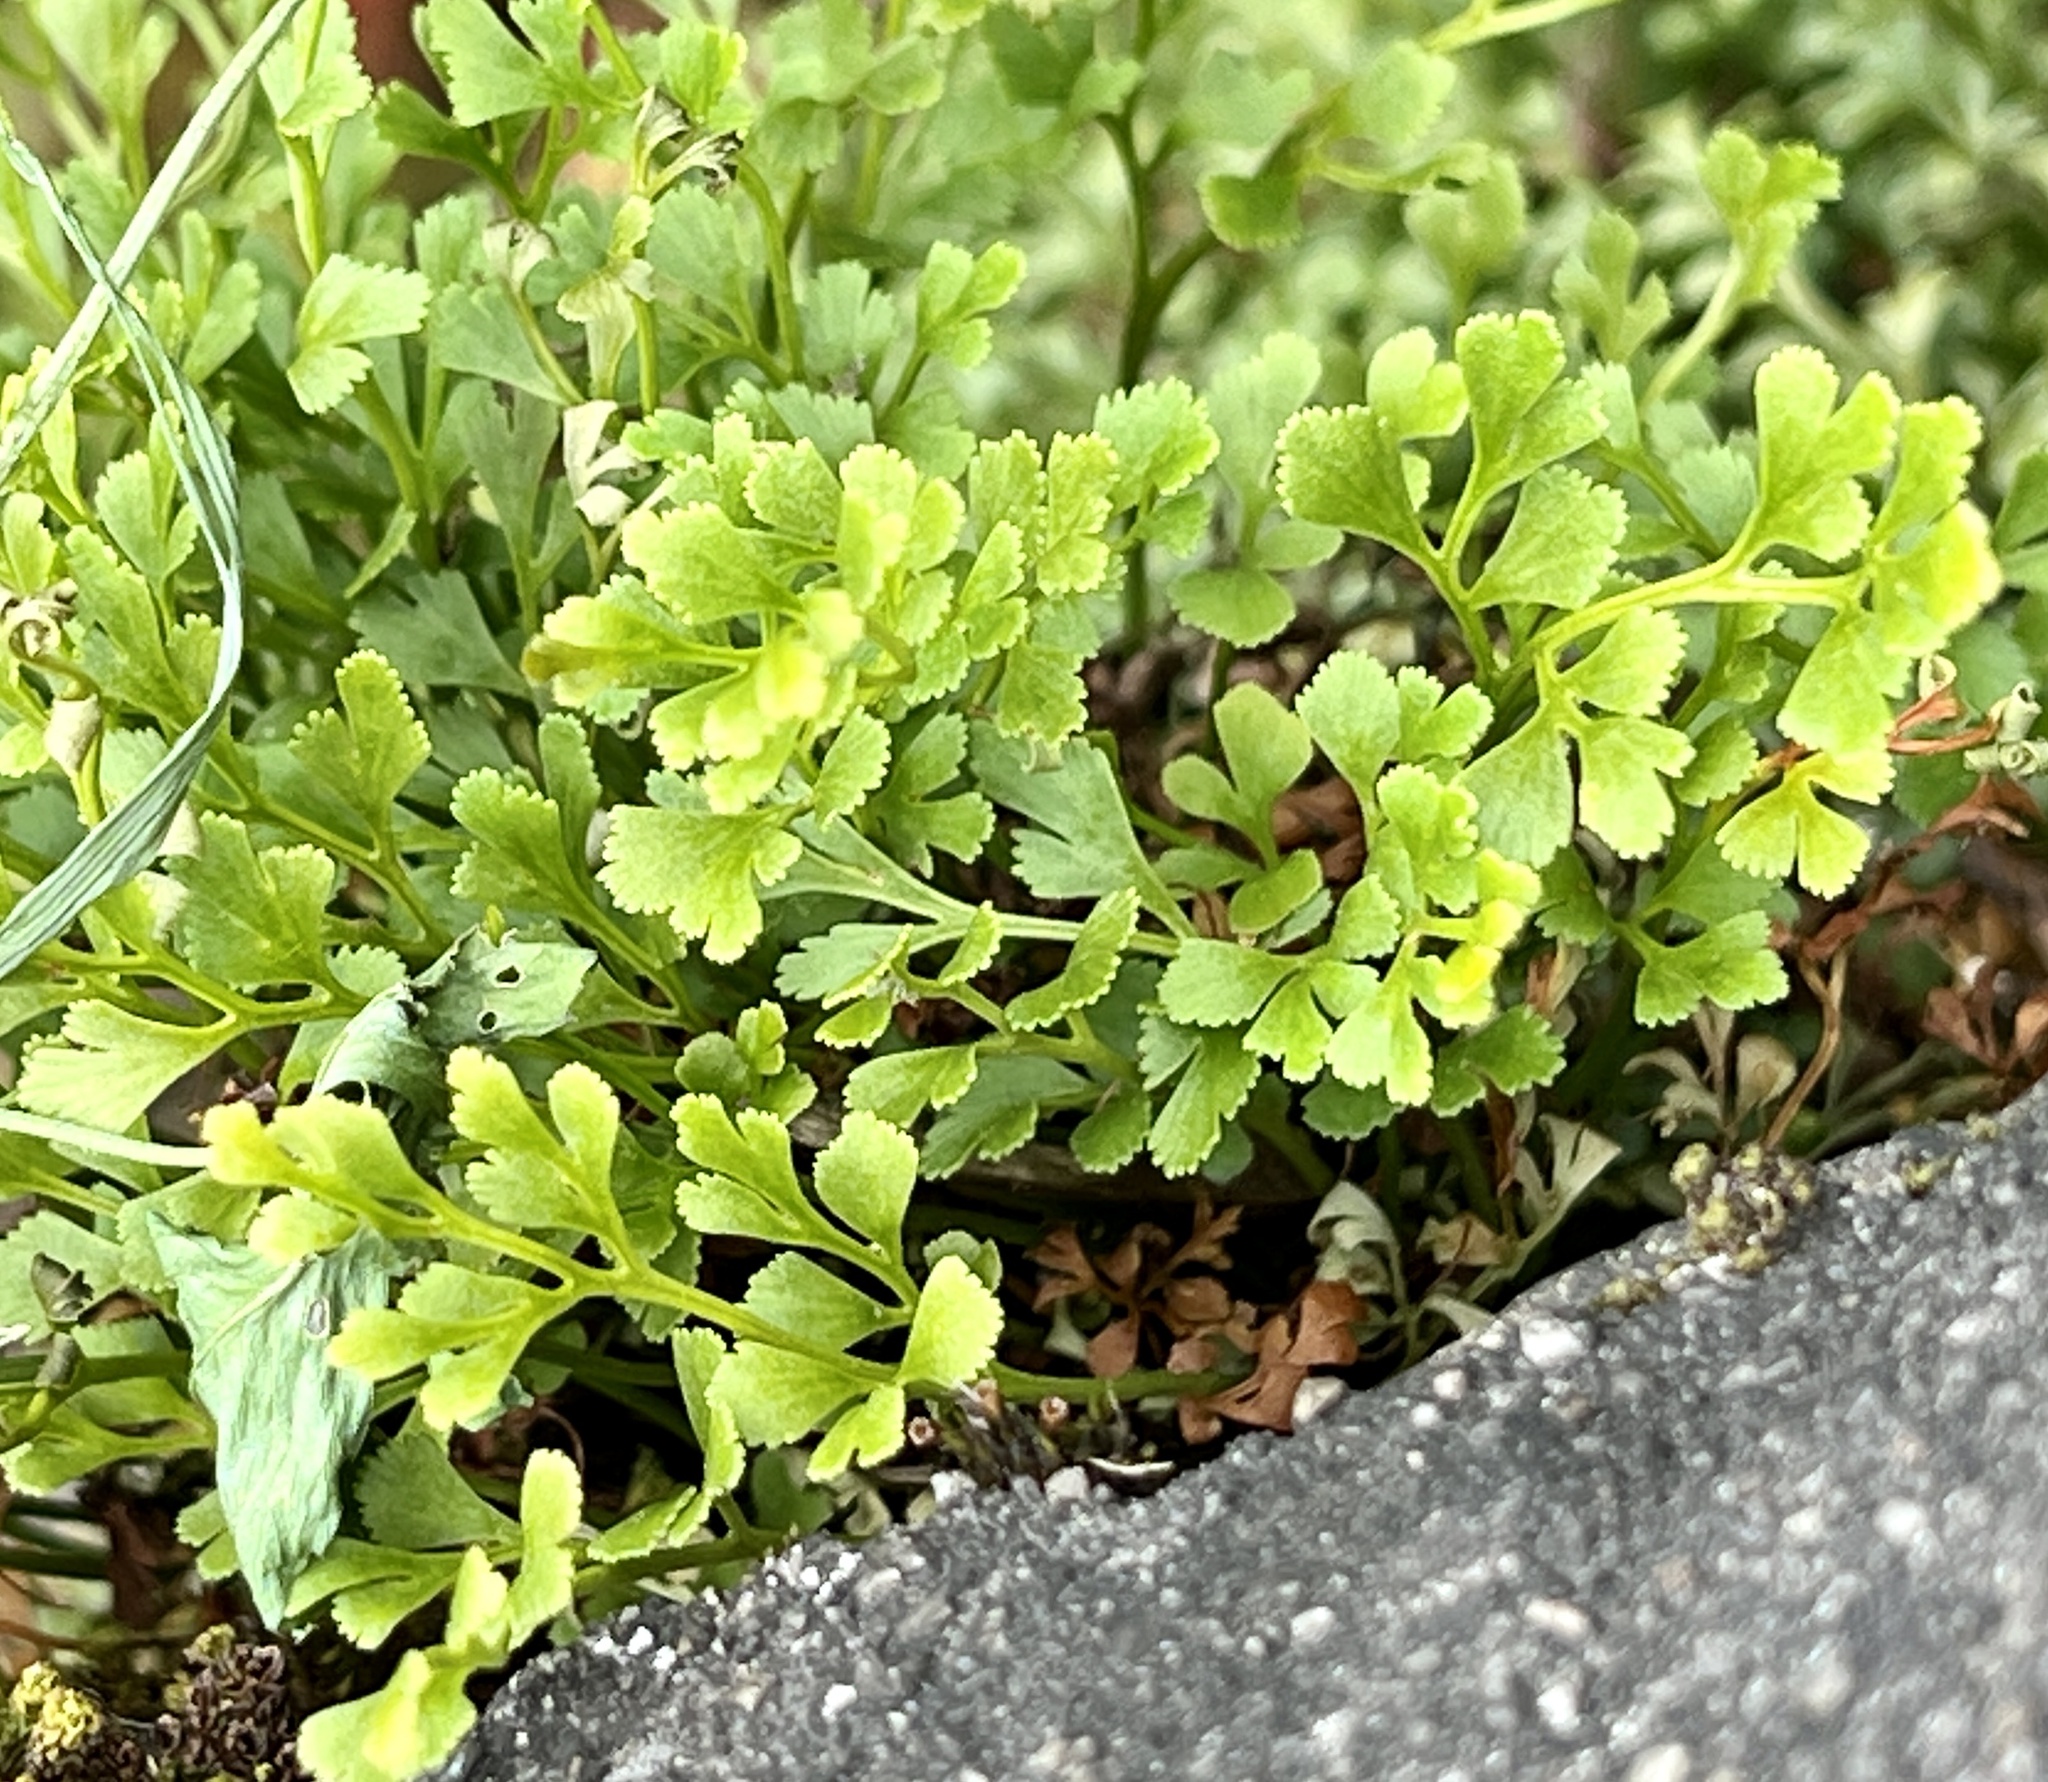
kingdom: Plantae
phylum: Tracheophyta
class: Polypodiopsida
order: Polypodiales
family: Aspleniaceae
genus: Asplenium
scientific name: Asplenium ruta-muraria
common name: Wall-rue
